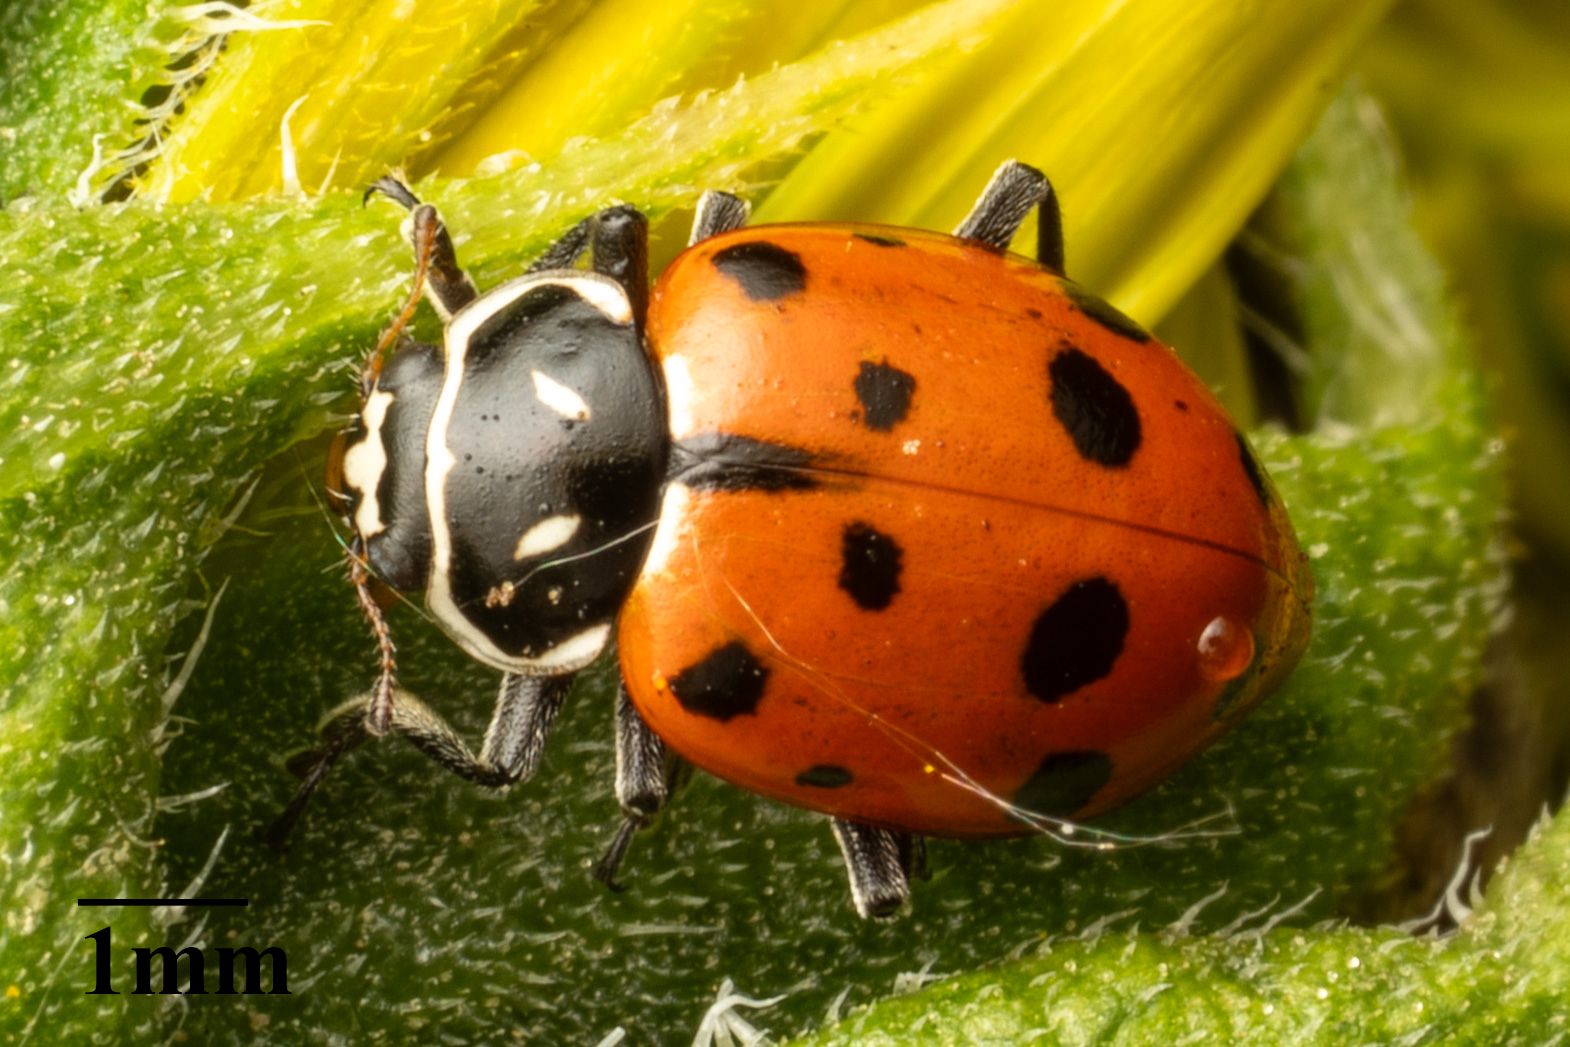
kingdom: Animalia
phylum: Arthropoda
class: Insecta
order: Coleoptera
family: Coccinellidae
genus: Hippodamia
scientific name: Hippodamia convergens
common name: Convergent lady beetle
